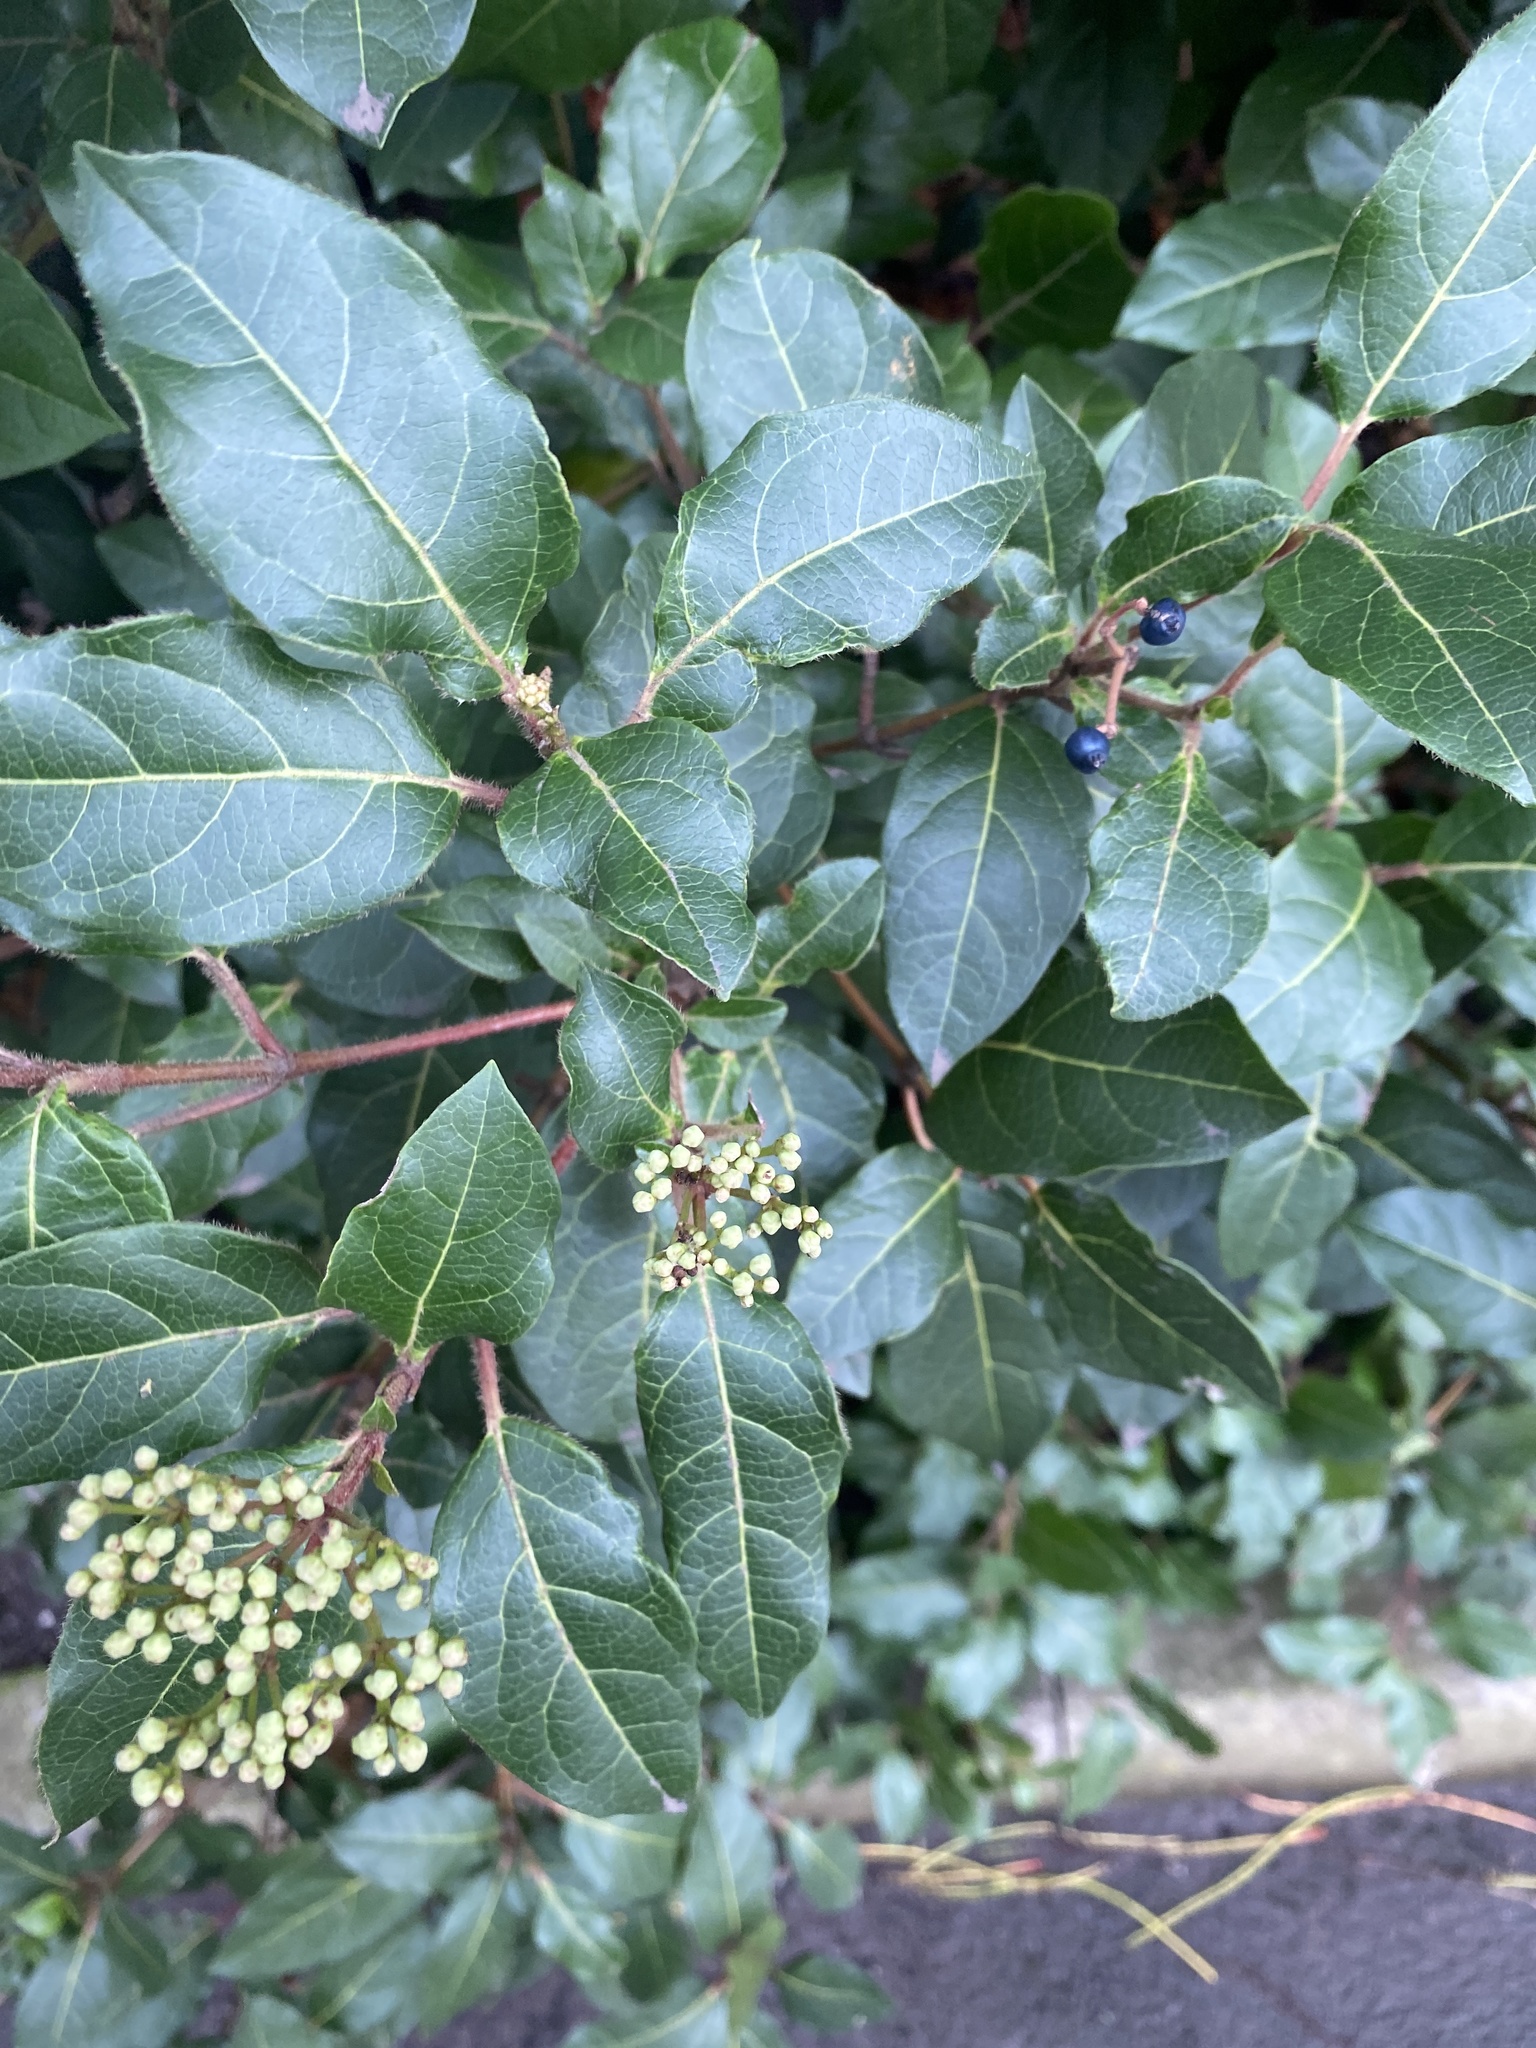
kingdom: Plantae
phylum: Tracheophyta
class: Magnoliopsida
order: Dipsacales
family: Viburnaceae
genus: Viburnum
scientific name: Viburnum tinus
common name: Laurustinus
